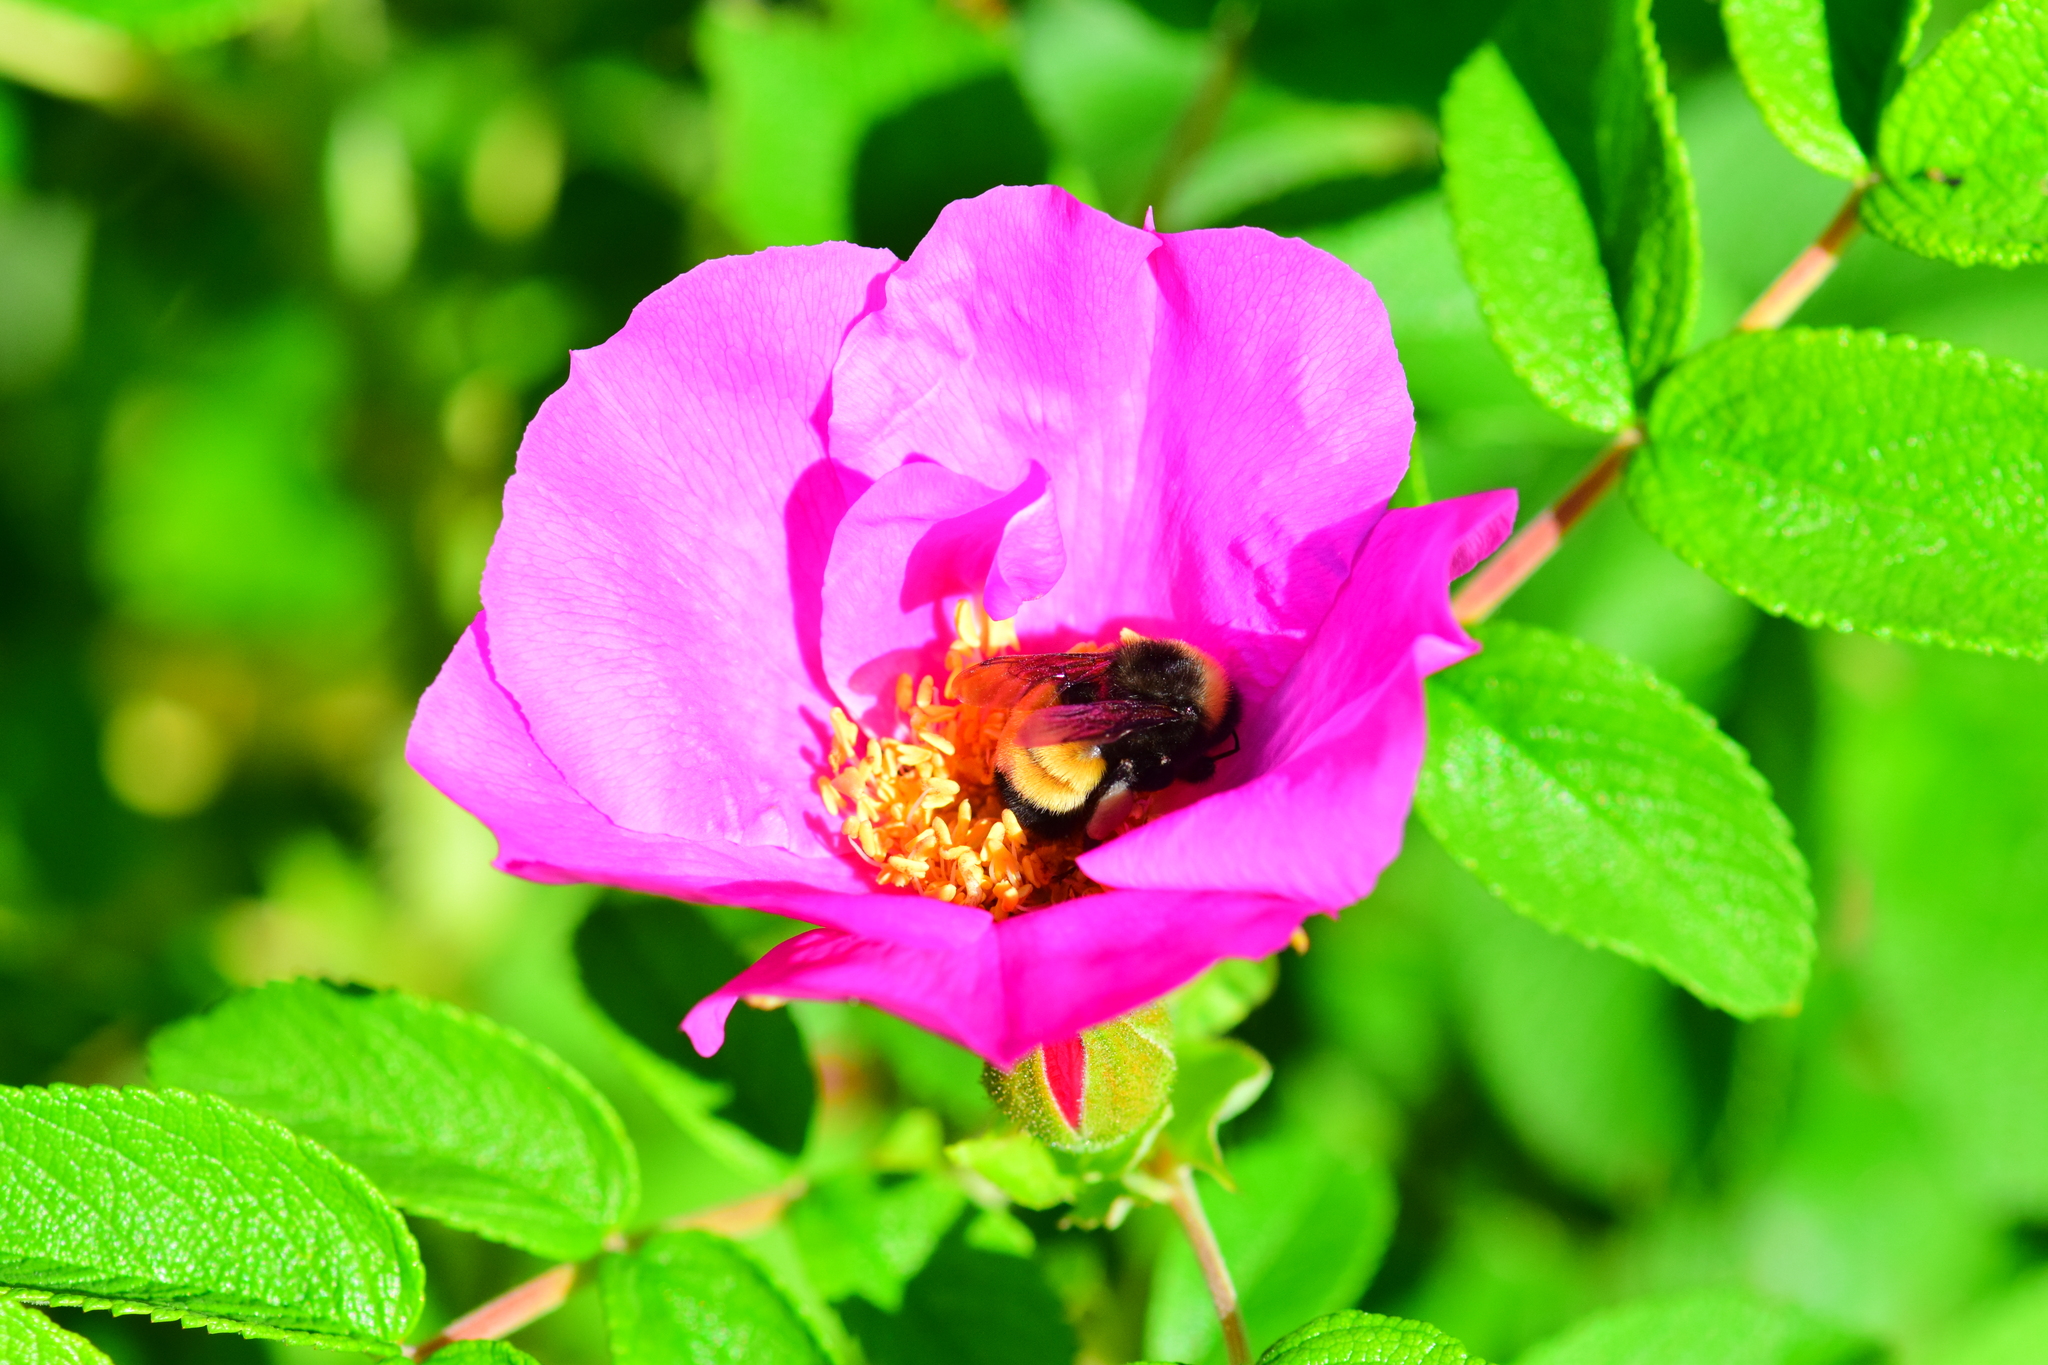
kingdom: Animalia
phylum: Arthropoda
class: Insecta
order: Hymenoptera
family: Apidae
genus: Bombus
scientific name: Bombus terricola
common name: Yellow-banded bumble bee
